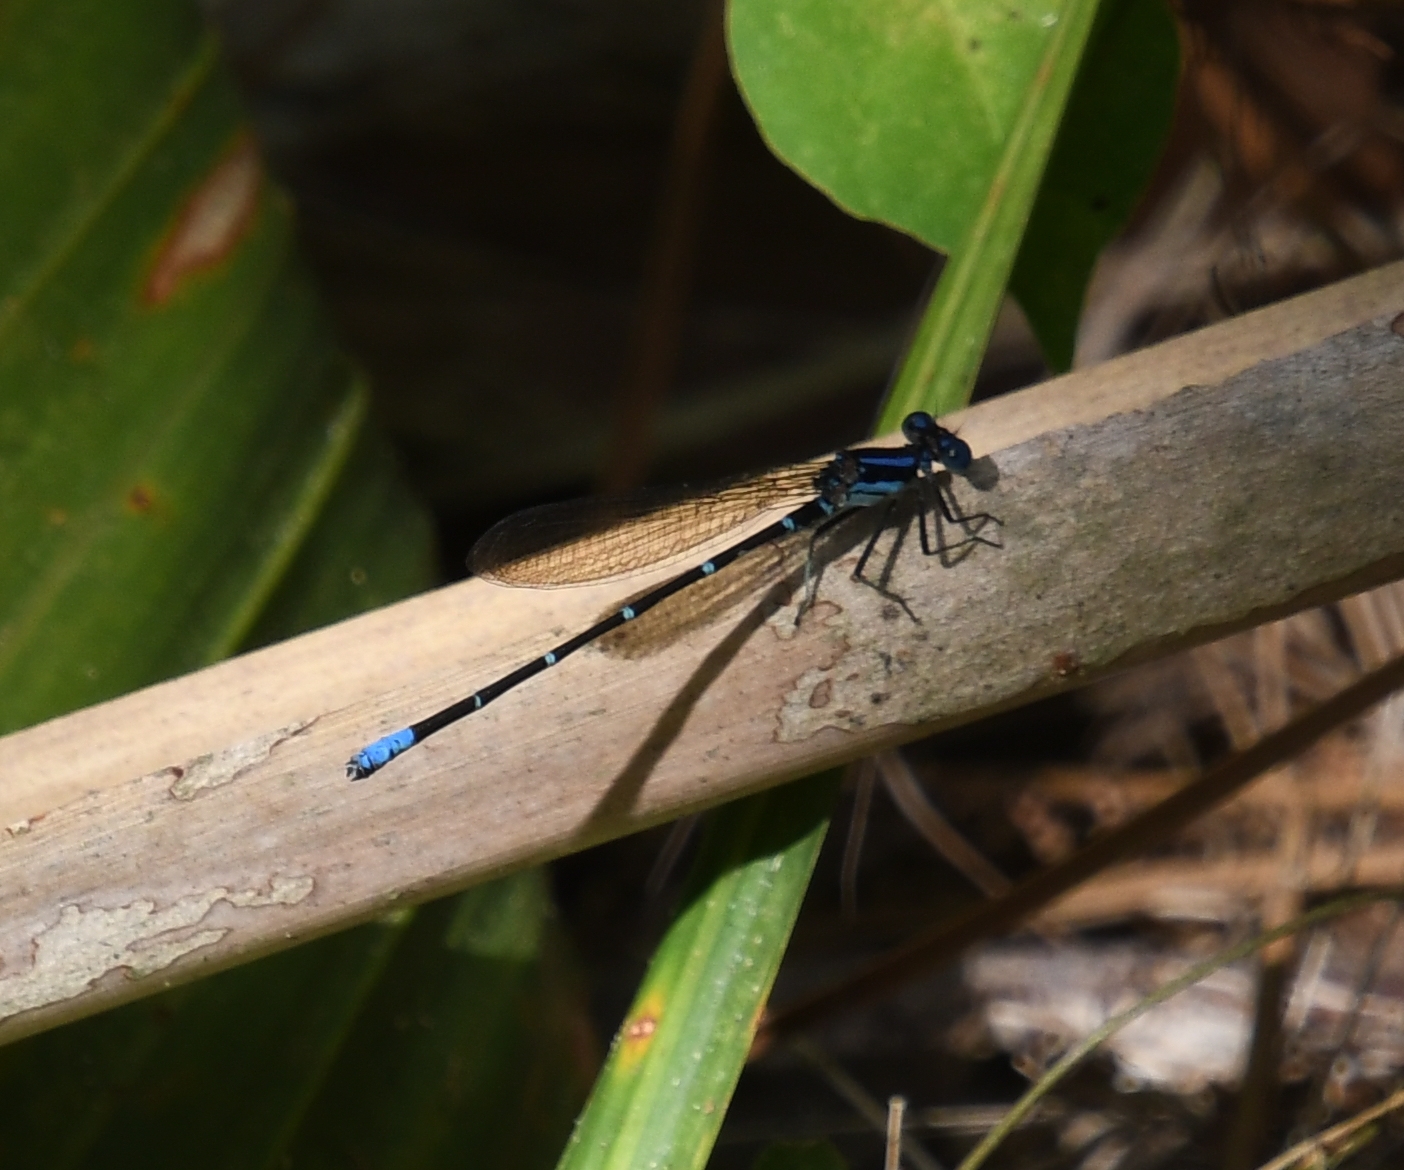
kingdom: Animalia
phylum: Arthropoda
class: Insecta
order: Odonata
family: Coenagrionidae
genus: Argia
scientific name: Argia sedula
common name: Blue-ringed dancer
